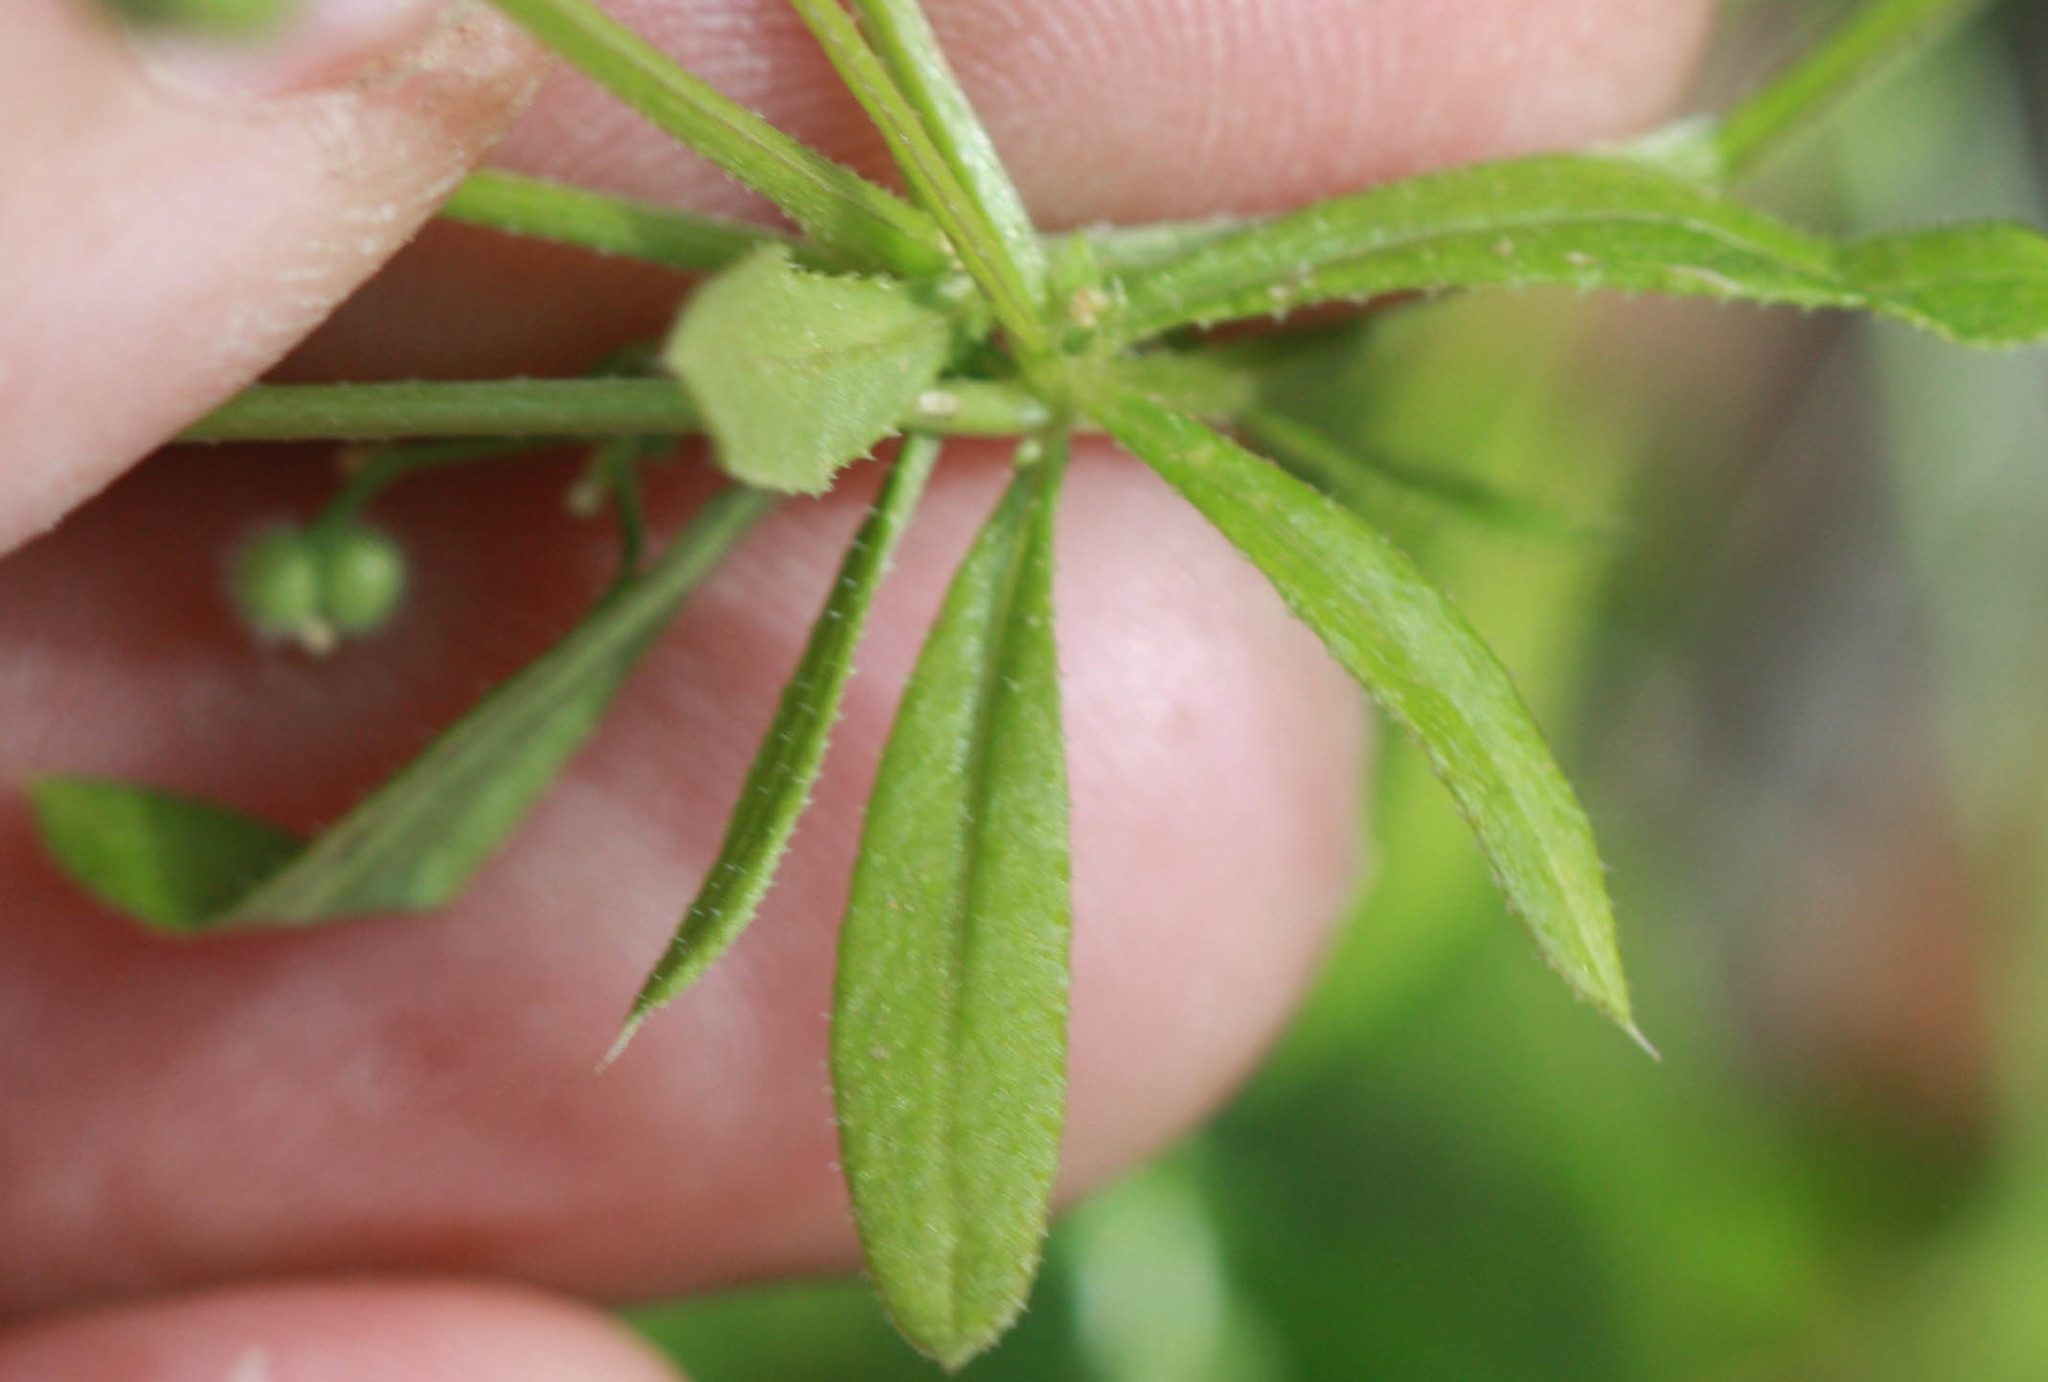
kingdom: Plantae
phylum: Tracheophyta
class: Magnoliopsida
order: Gentianales
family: Rubiaceae
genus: Galium
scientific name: Galium aparine
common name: Cleavers
